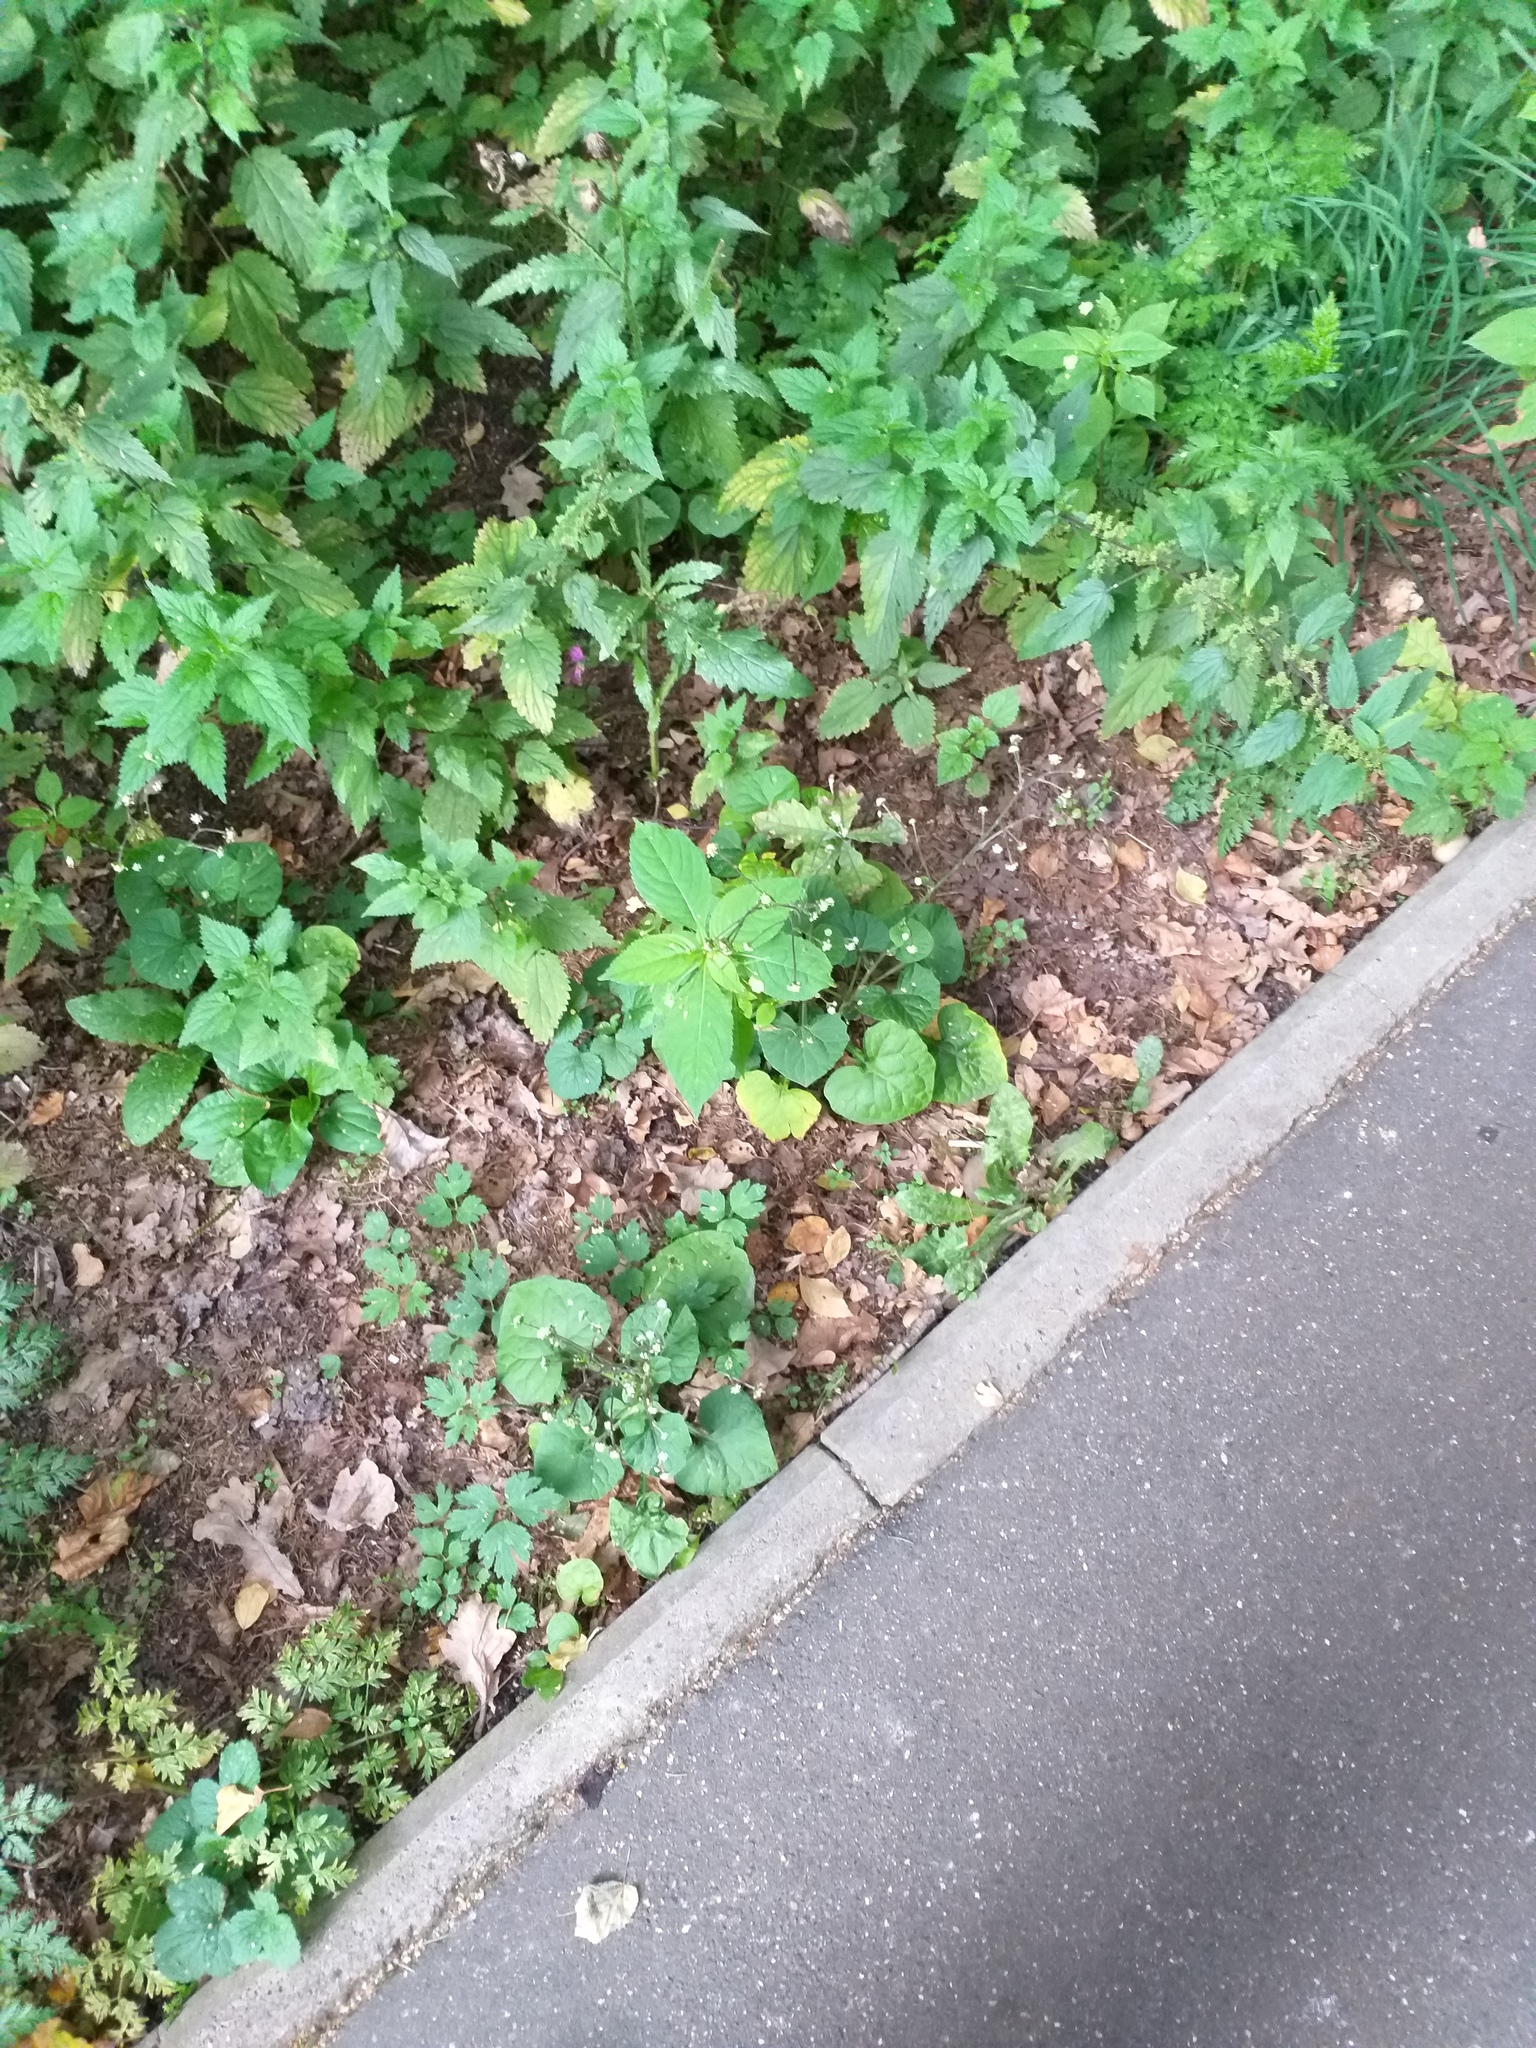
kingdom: Plantae
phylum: Tracheophyta
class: Magnoliopsida
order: Asterales
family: Asteraceae
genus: Adenocaulon
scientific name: Adenocaulon himalaicum
